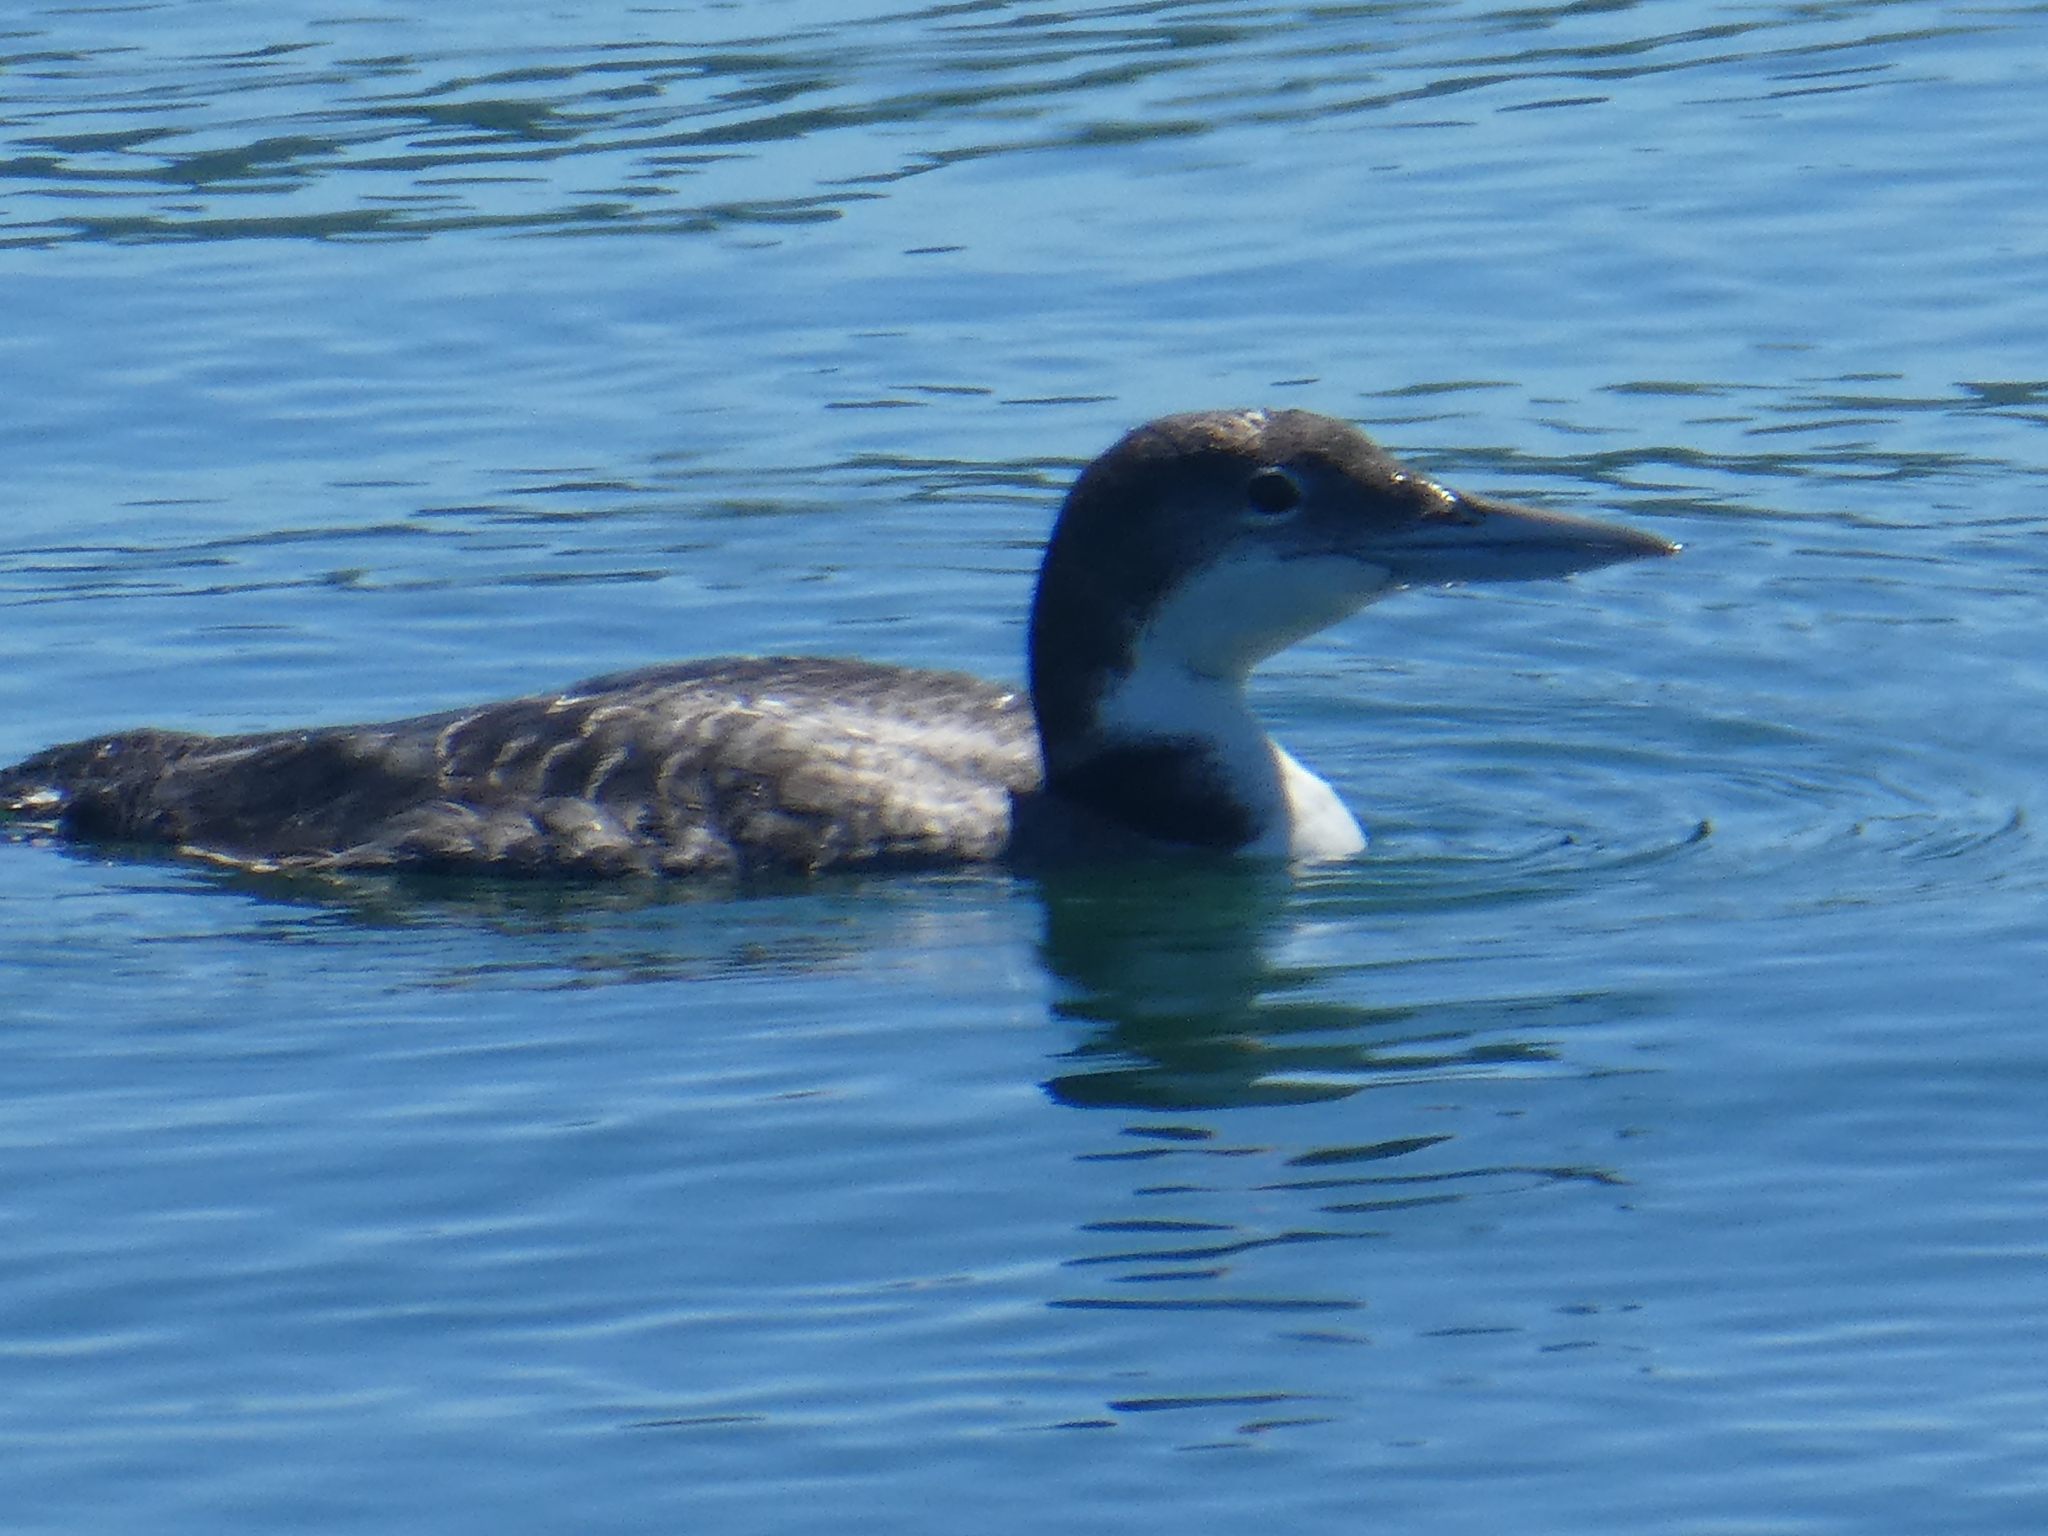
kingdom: Animalia
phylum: Chordata
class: Aves
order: Gaviiformes
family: Gaviidae
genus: Gavia
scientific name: Gavia immer
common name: Common loon
